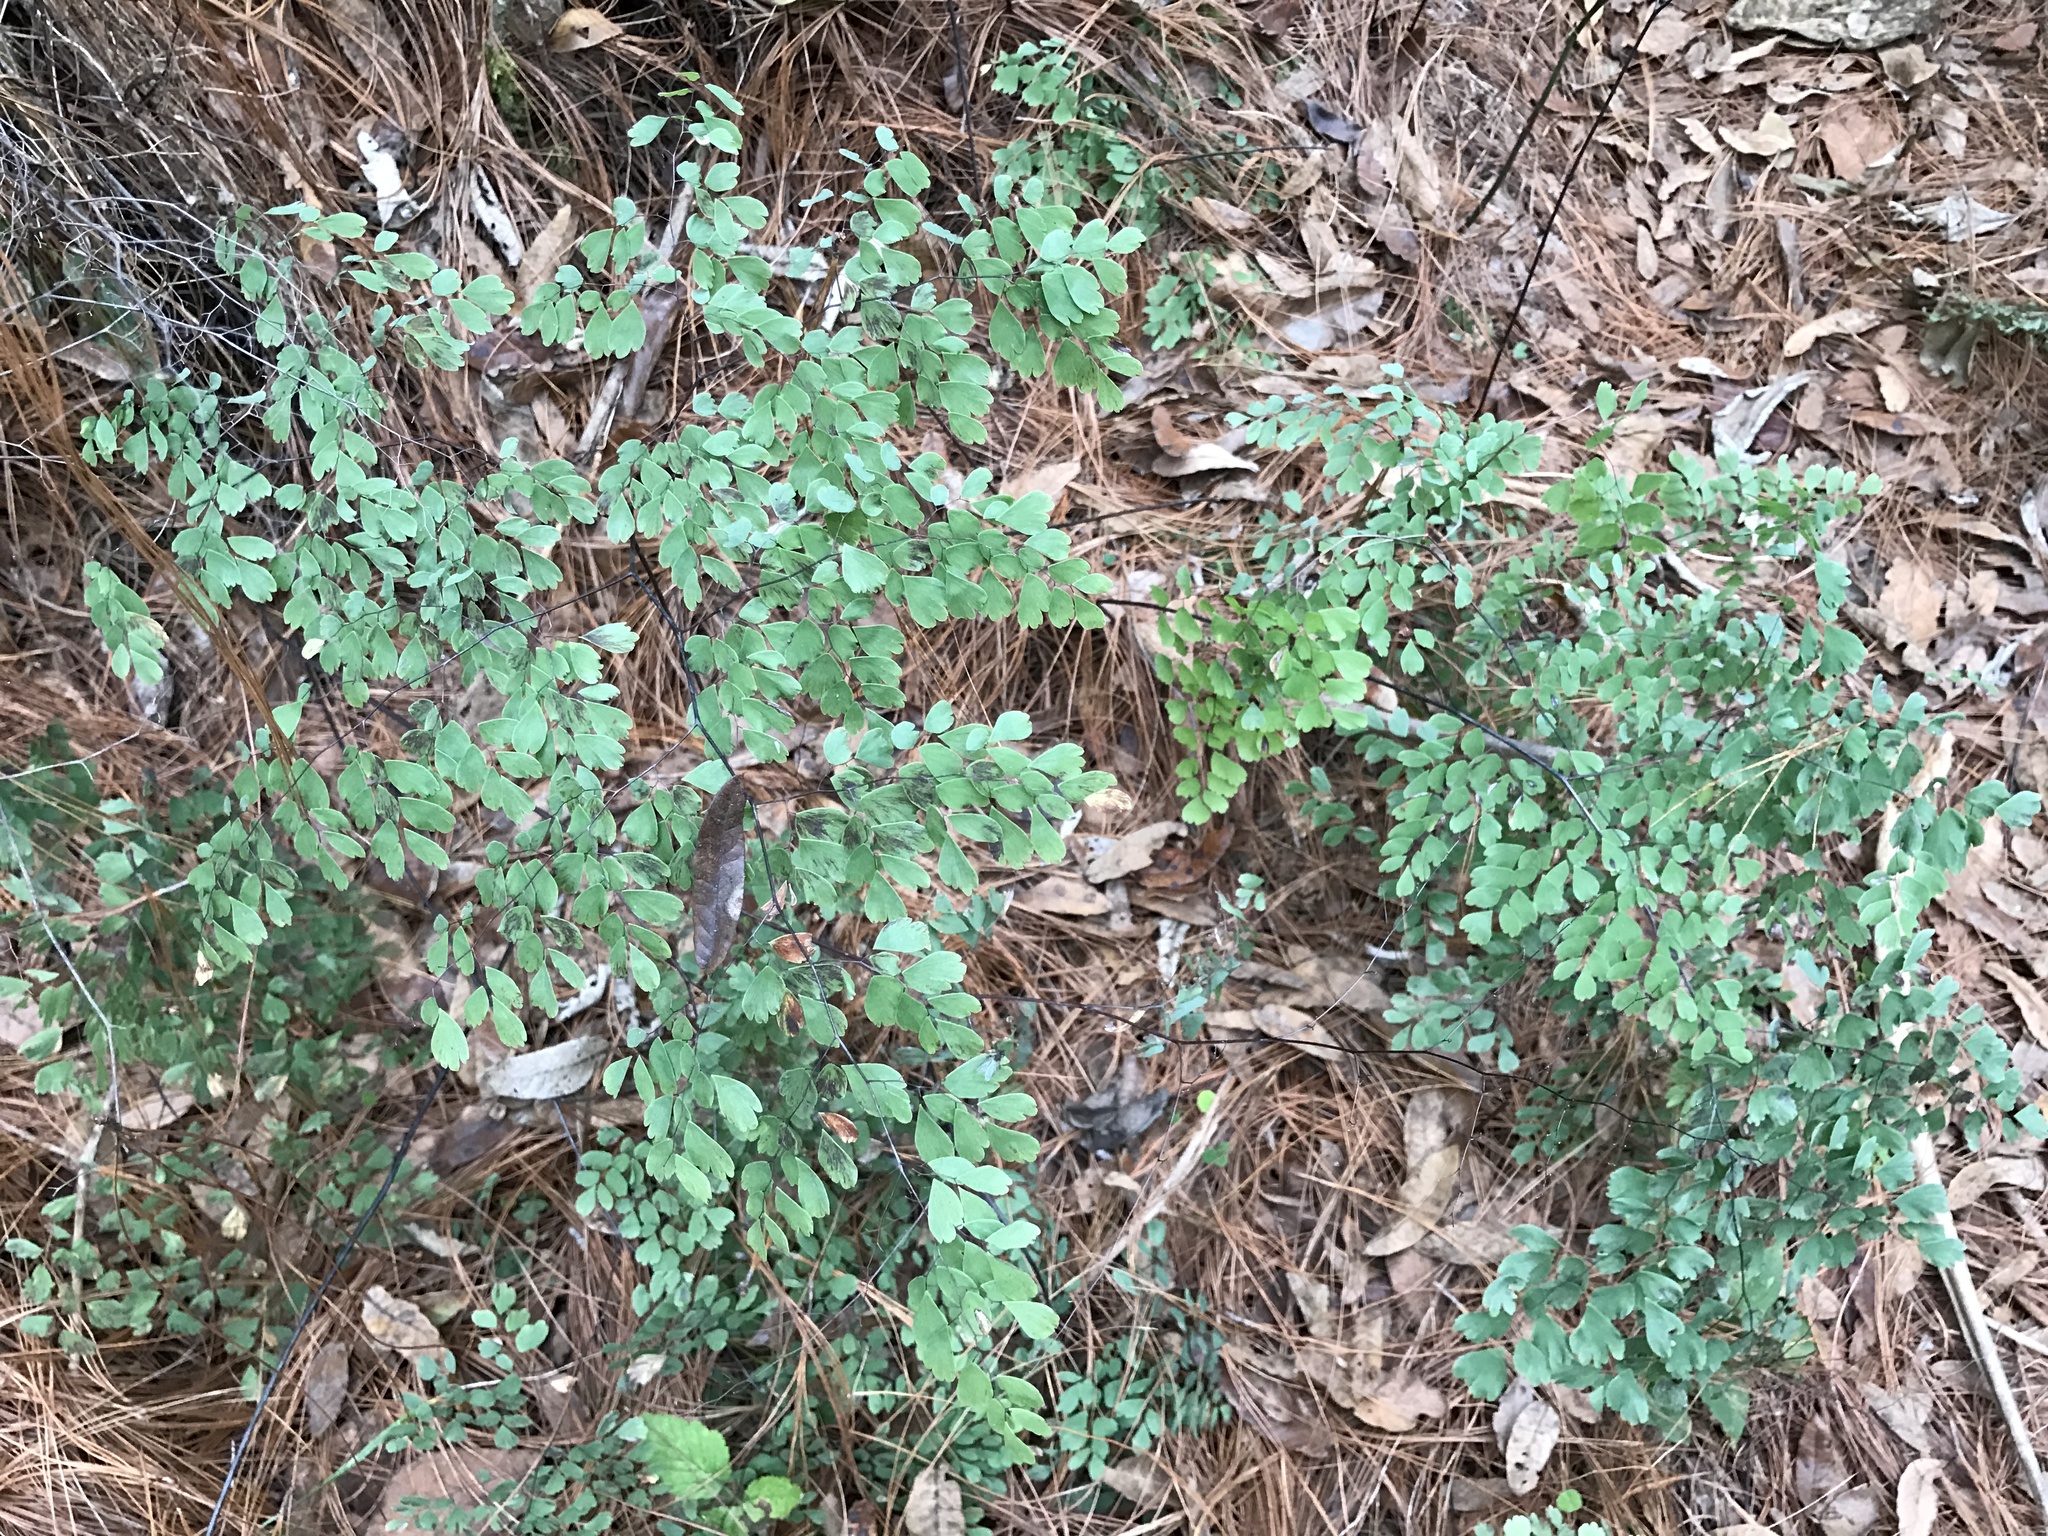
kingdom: Plantae
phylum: Tracheophyta
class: Polypodiopsida
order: Polypodiales
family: Pteridaceae
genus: Adiantum
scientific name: Adiantum andicola
